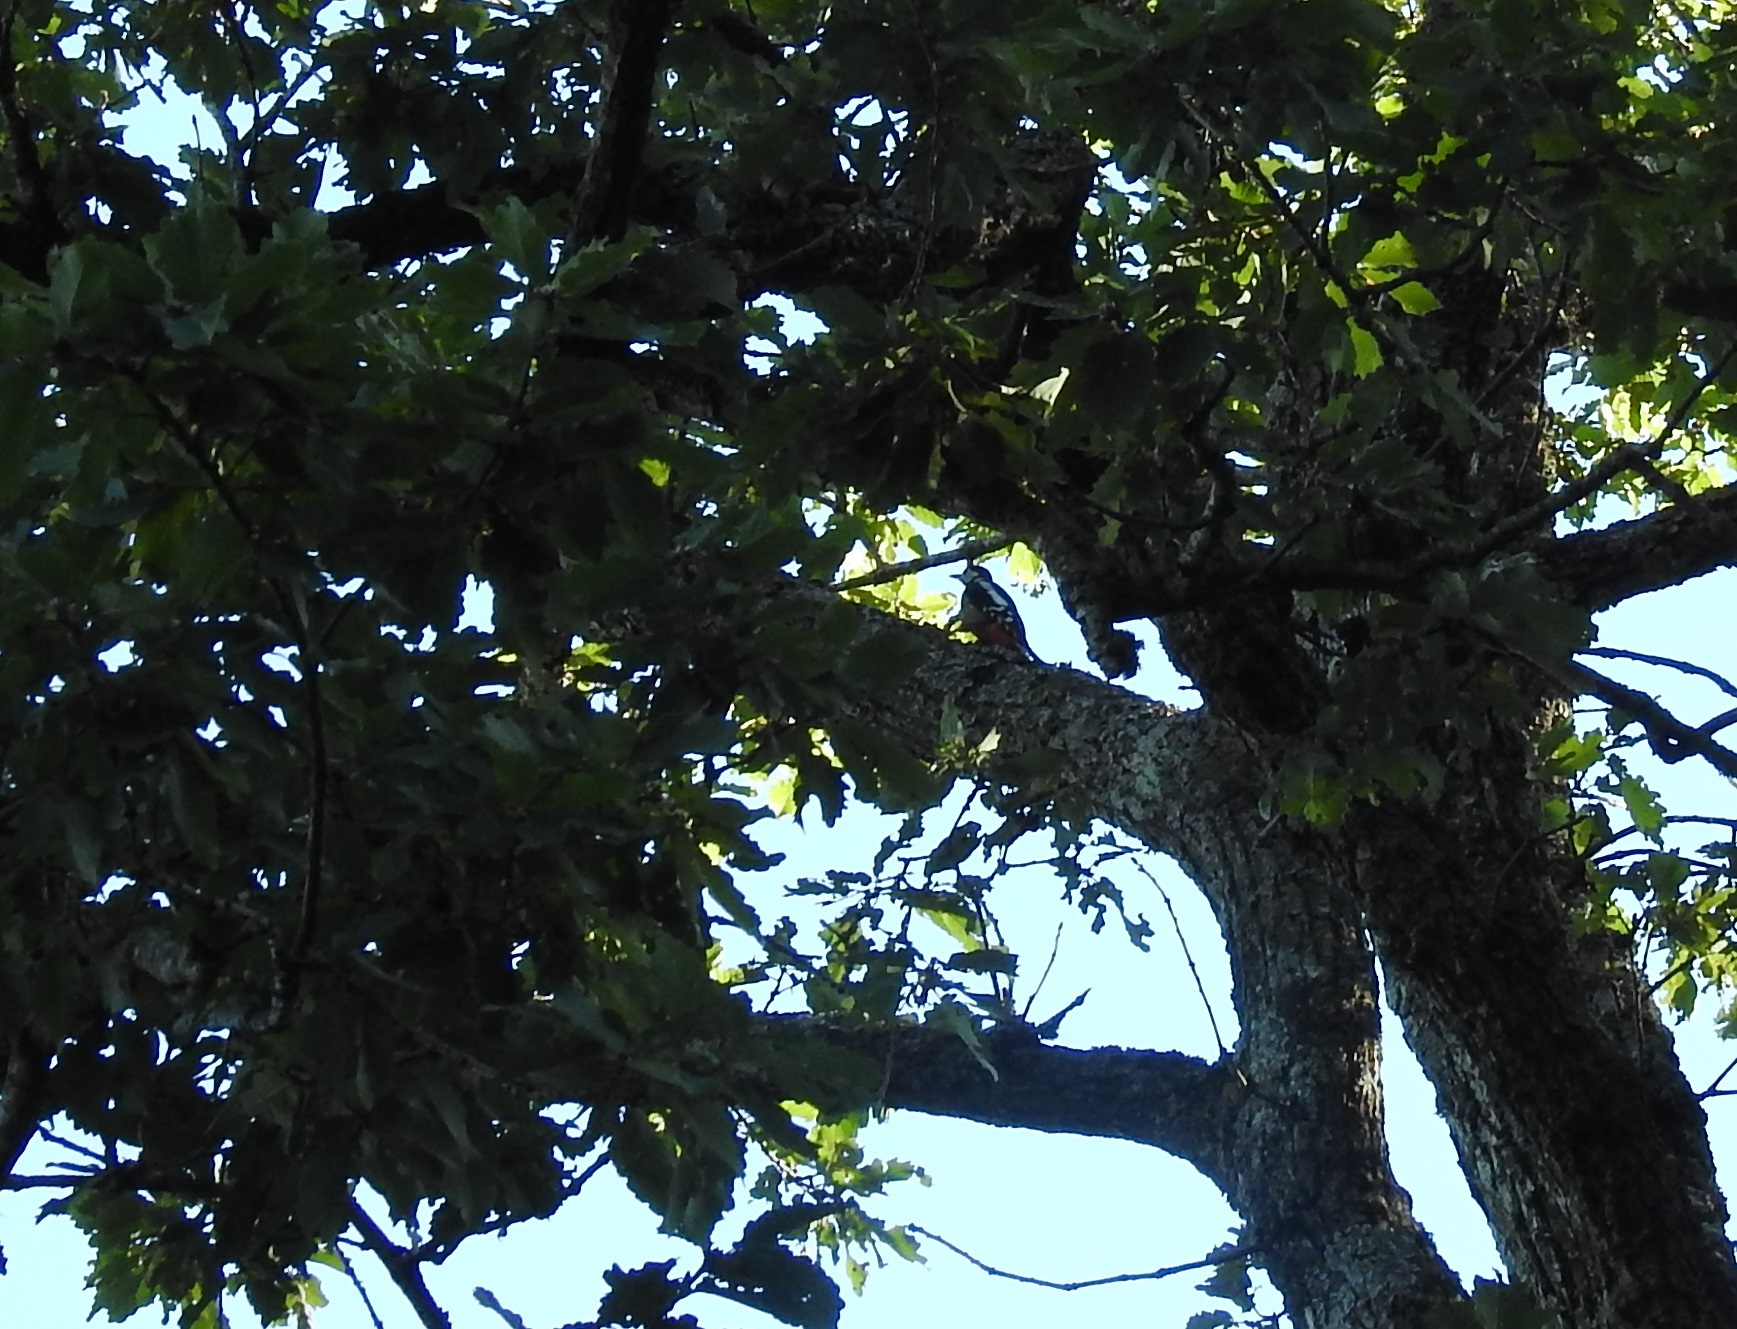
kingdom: Animalia
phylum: Chordata
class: Aves
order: Piciformes
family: Picidae
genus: Dendrocopos
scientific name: Dendrocopos major
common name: Great spotted woodpecker
